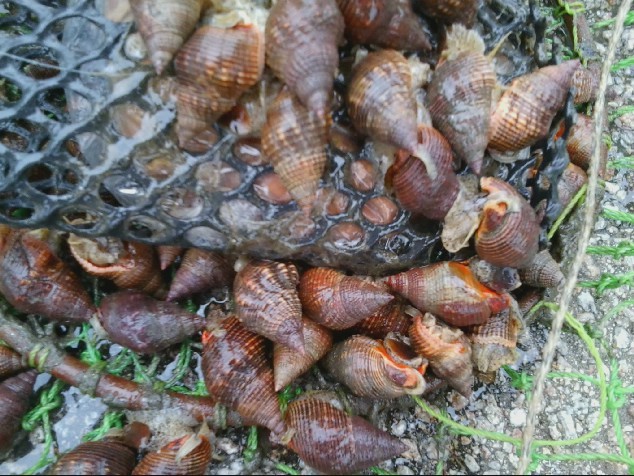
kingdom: Animalia
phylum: Mollusca
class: Gastropoda
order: Neogastropoda
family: Nassariidae
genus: Caesia
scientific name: Caesia fossata
